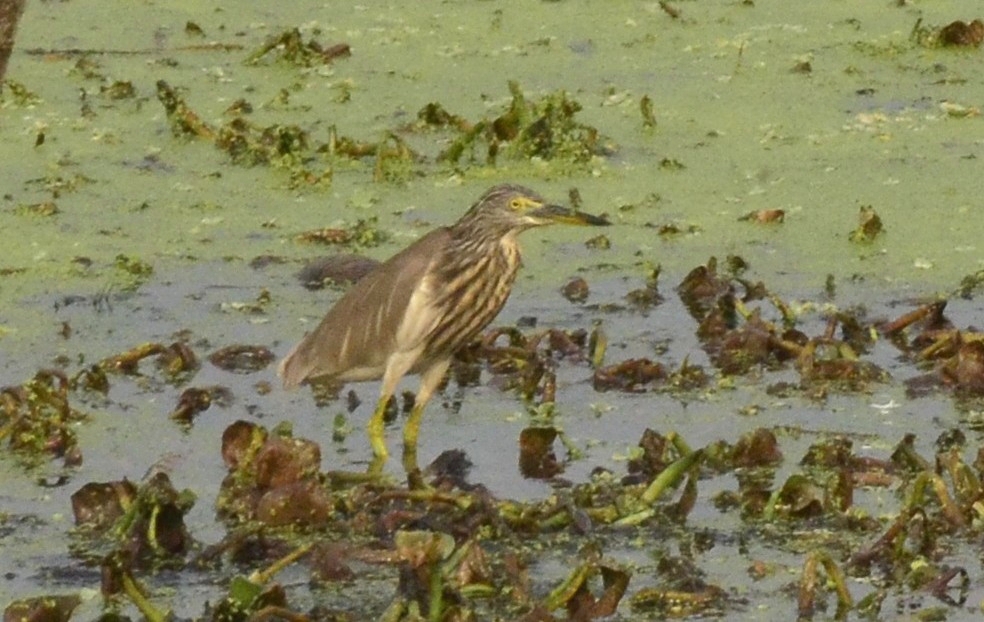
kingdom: Animalia
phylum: Chordata
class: Aves
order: Pelecaniformes
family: Ardeidae
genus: Ardeola
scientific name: Ardeola grayii
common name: Indian pond heron
